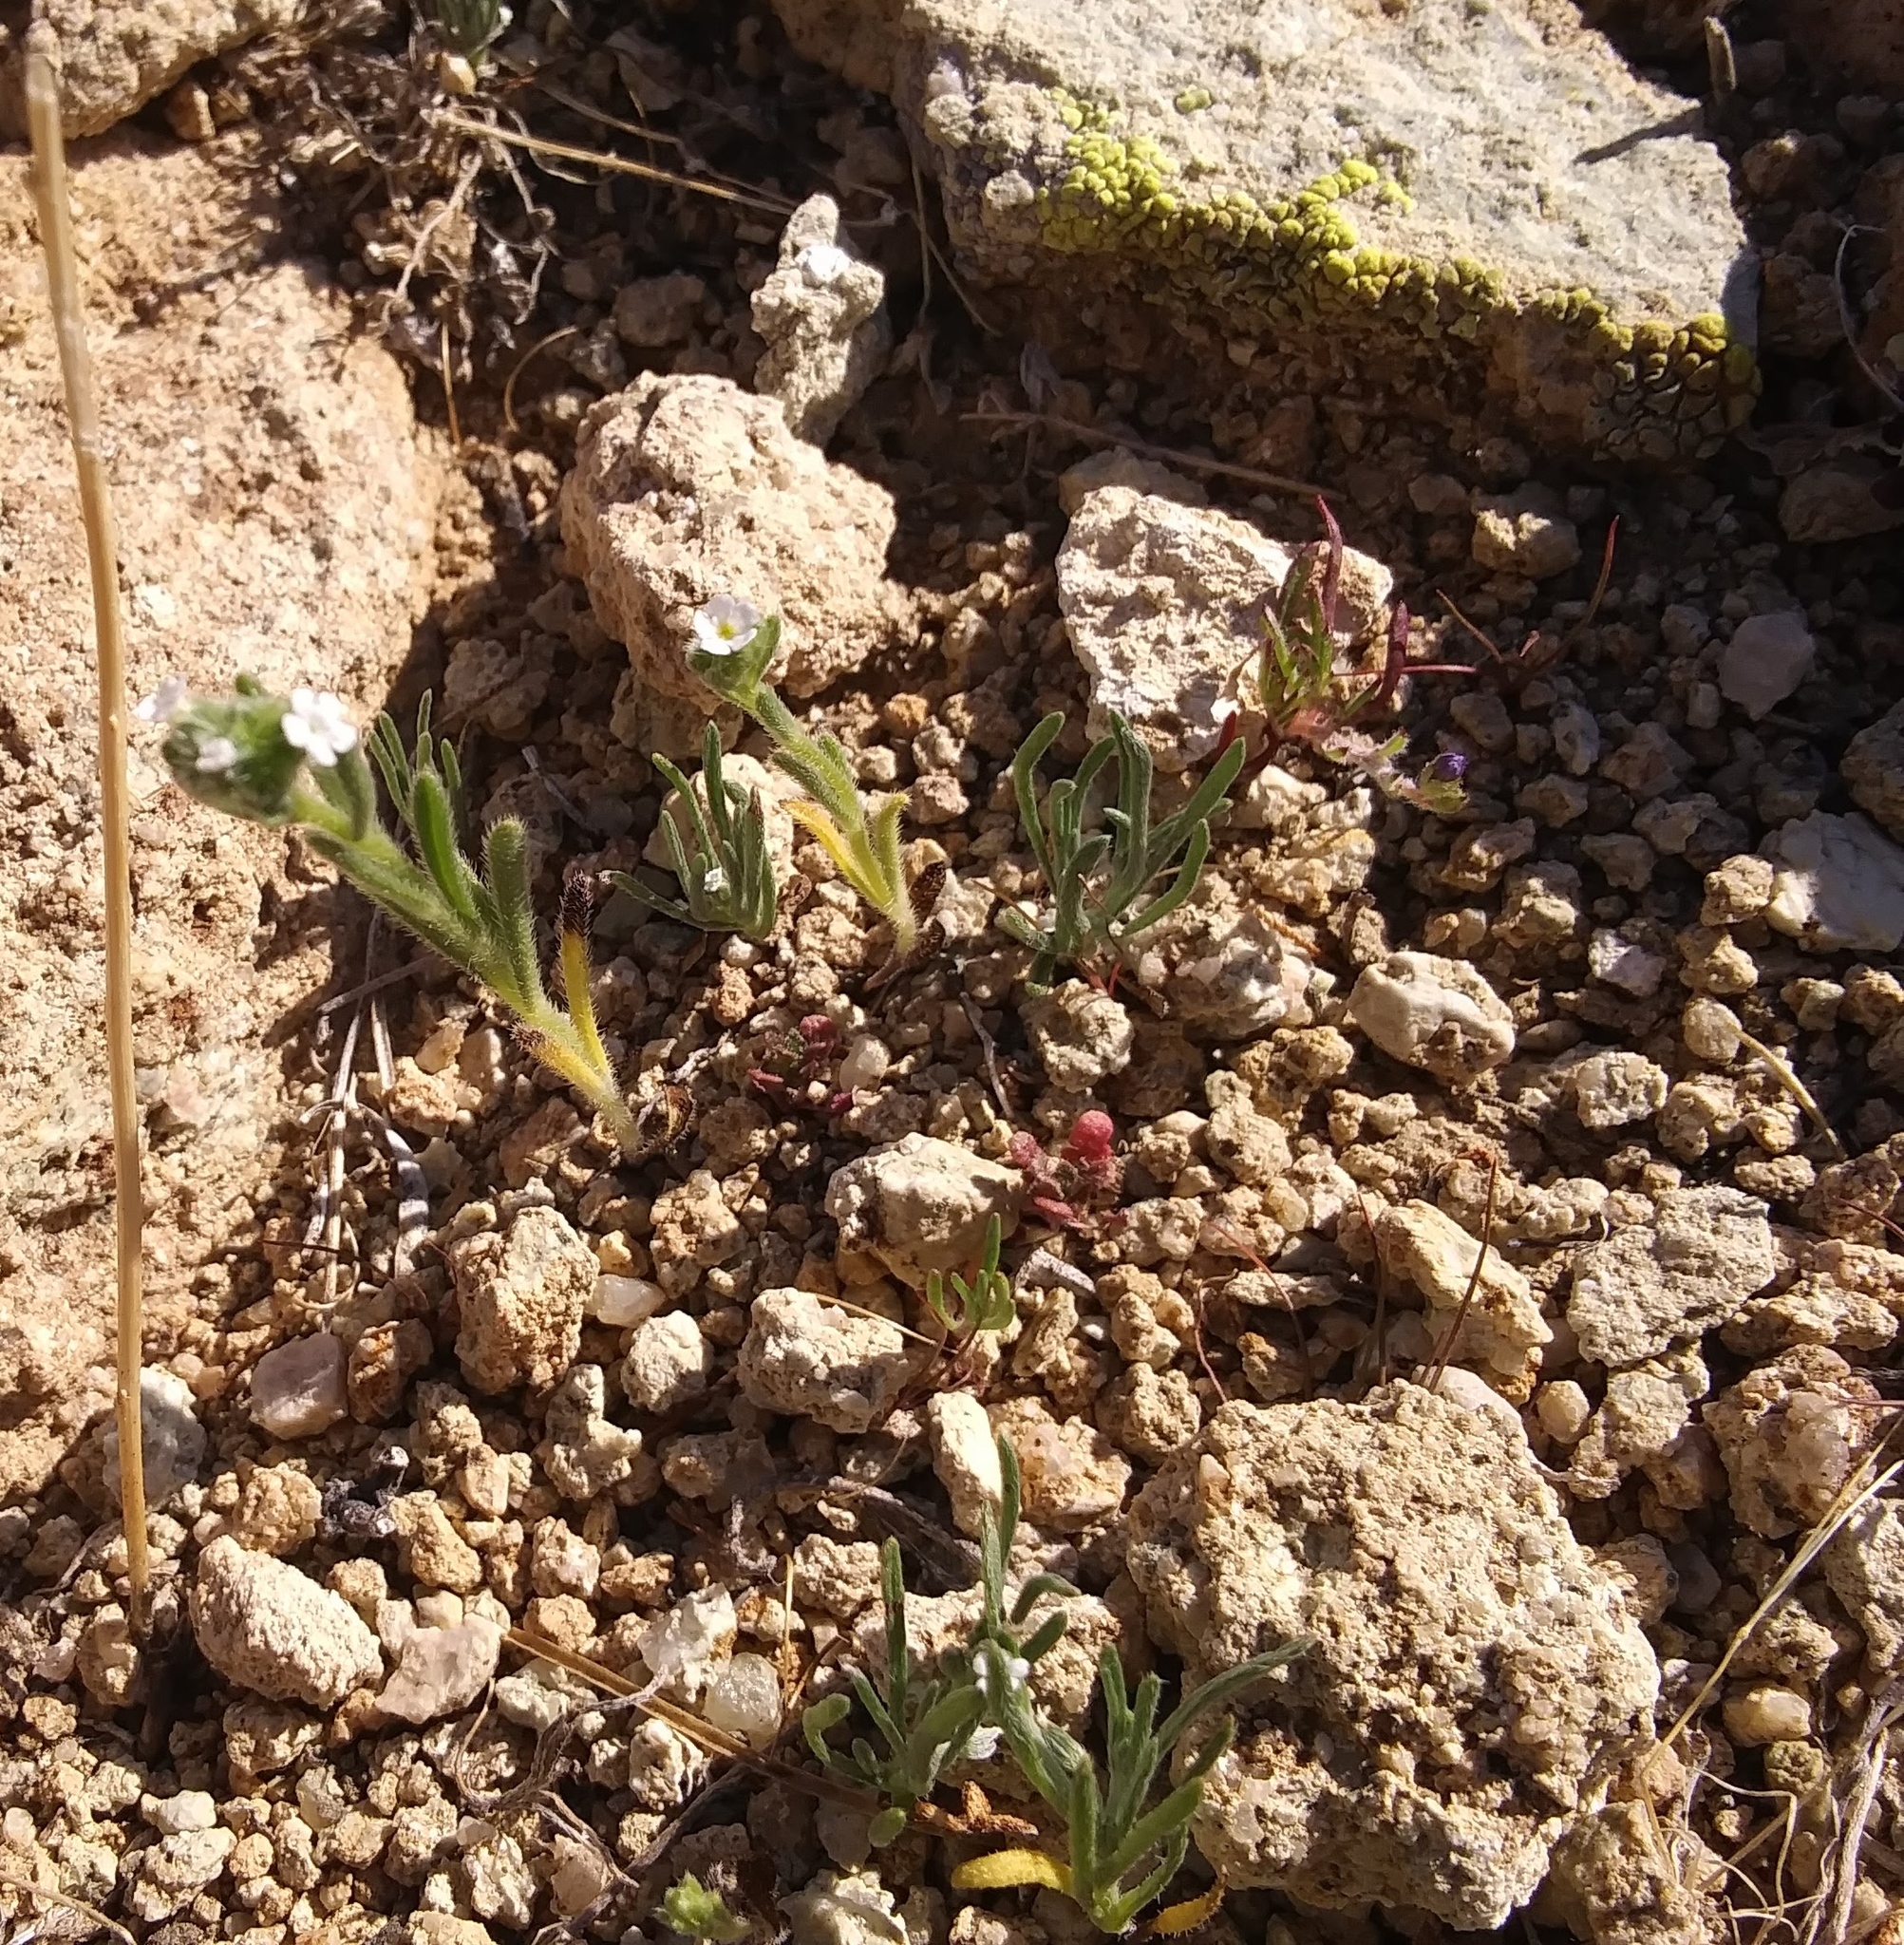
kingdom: Plantae
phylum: Tracheophyta
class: Magnoliopsida
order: Boraginales
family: Boraginaceae
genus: Cryptantha
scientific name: Cryptantha pterocarya
